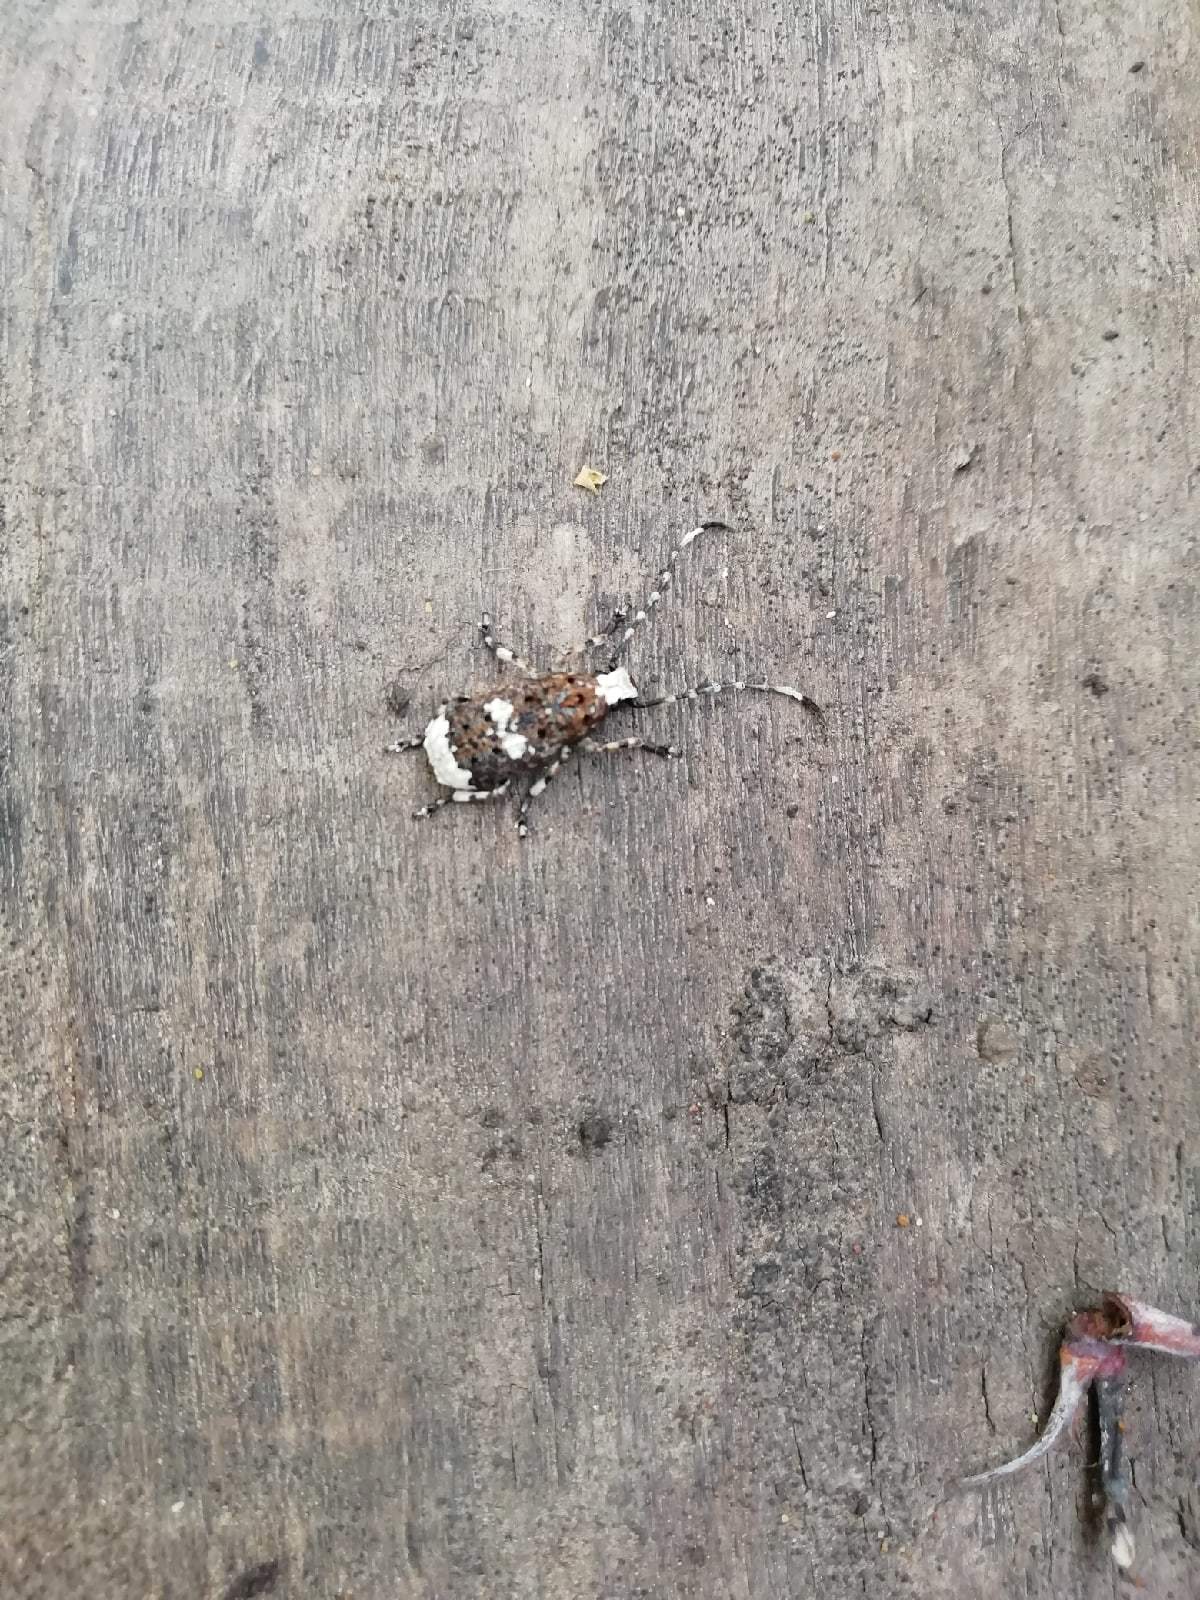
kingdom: Animalia
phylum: Arthropoda
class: Insecta
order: Coleoptera
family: Anthribidae
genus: Platystomos
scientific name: Platystomos albinus
